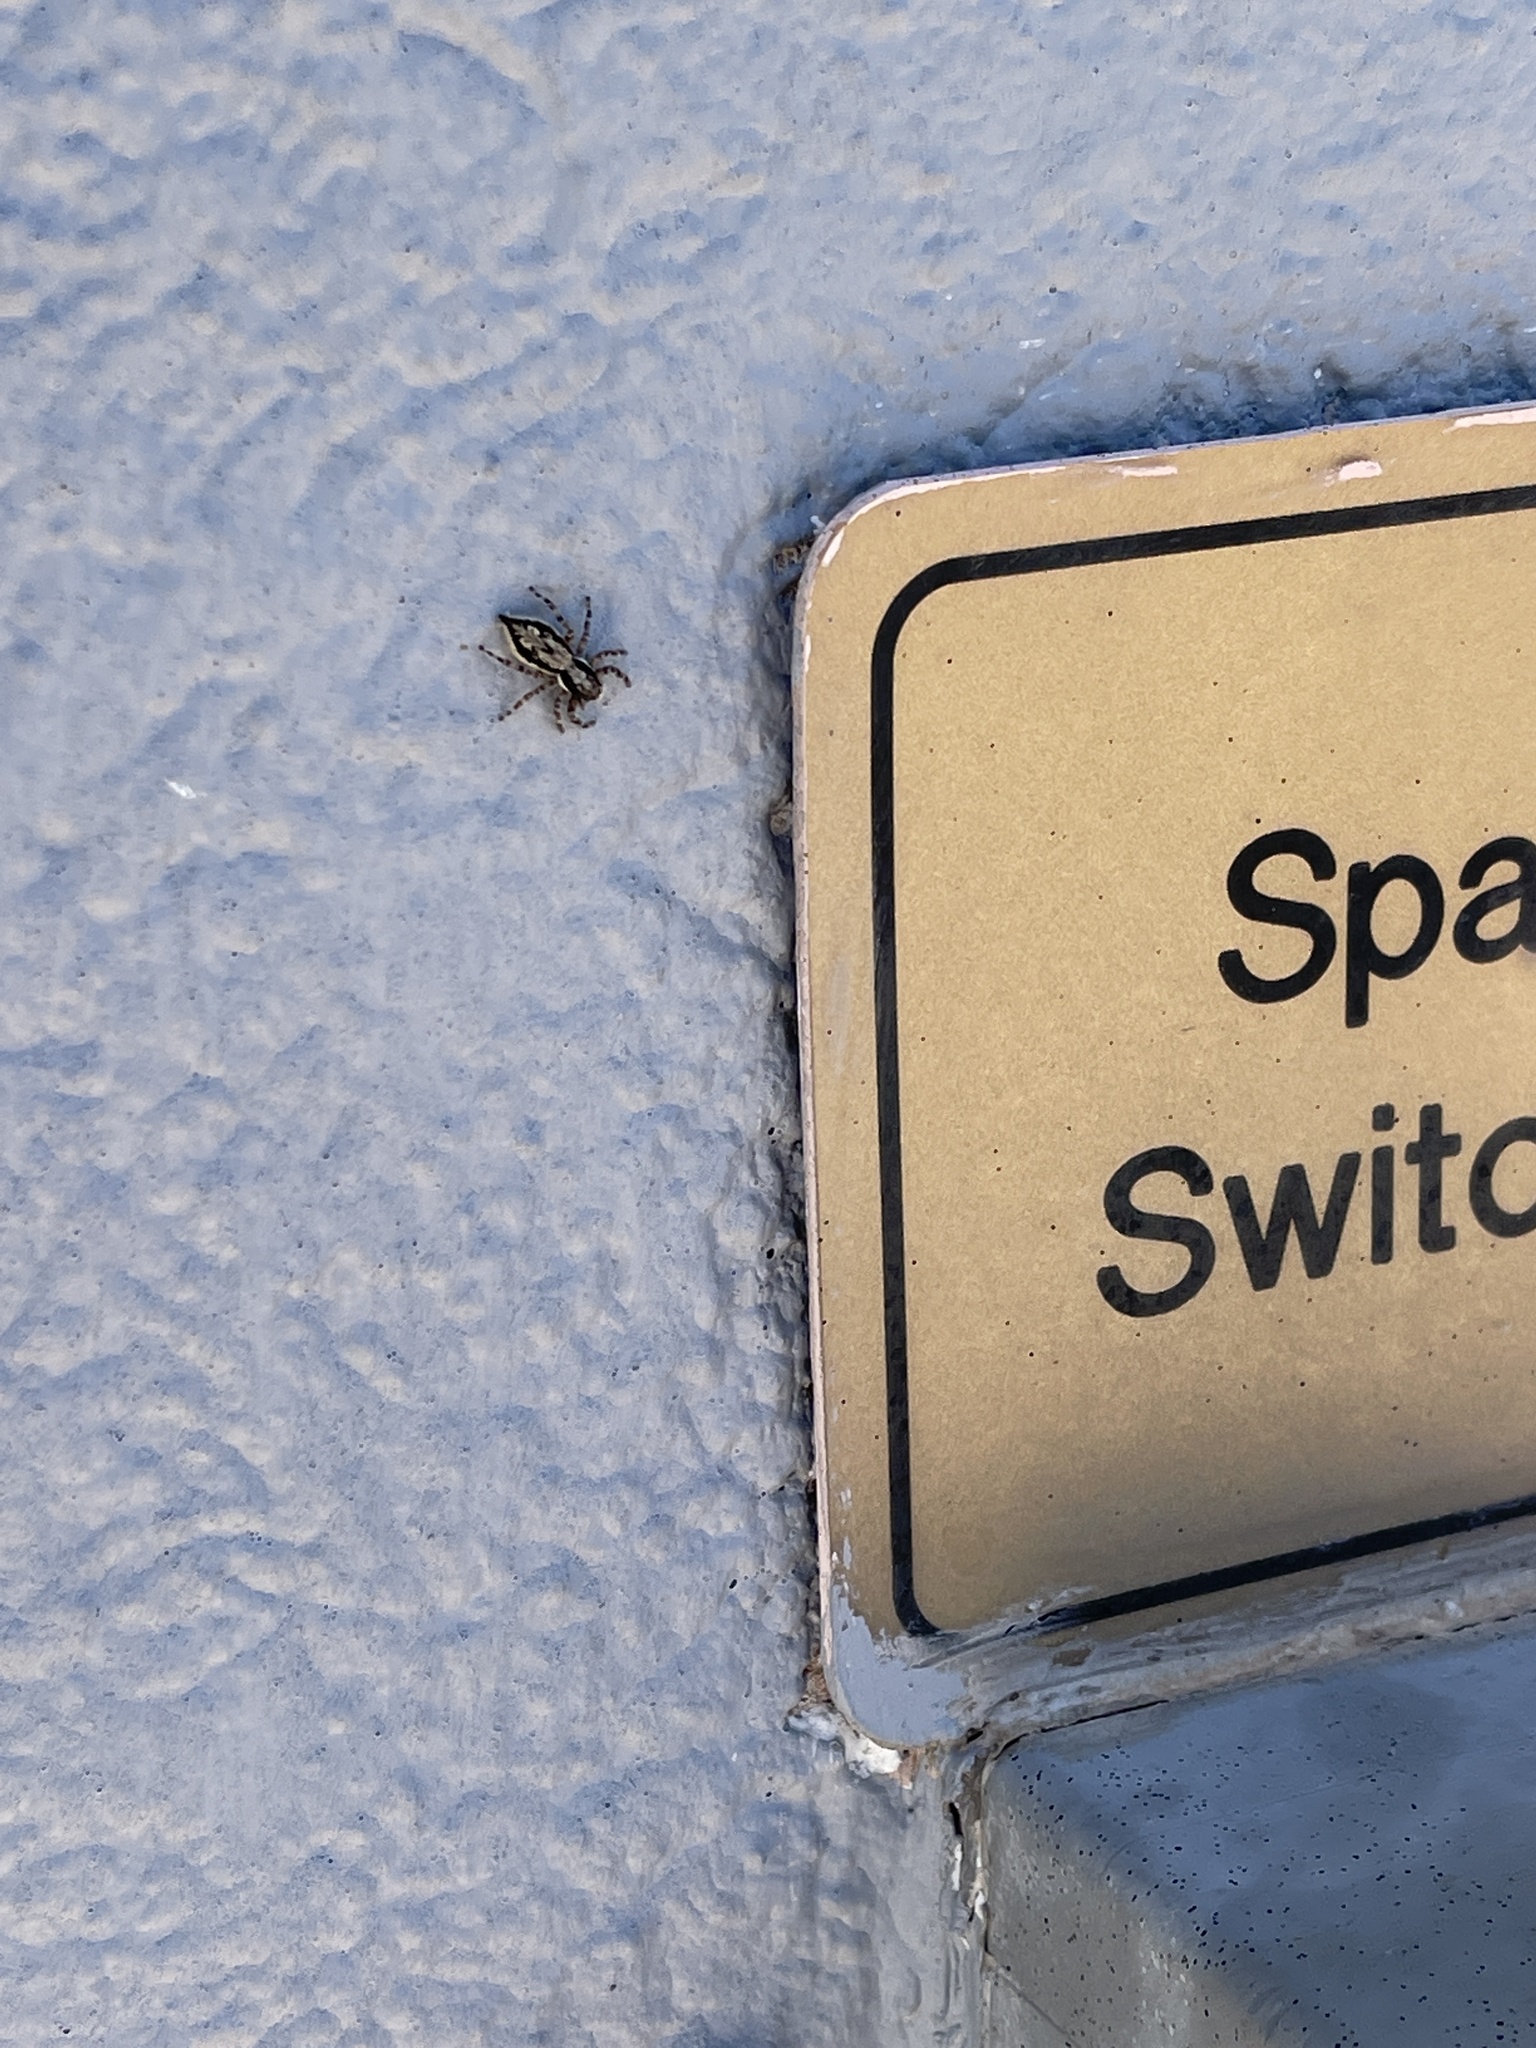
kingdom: Animalia
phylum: Arthropoda
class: Arachnida
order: Araneae
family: Salticidae
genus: Menemerus
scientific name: Menemerus bivittatus
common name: Gray wall jumper
